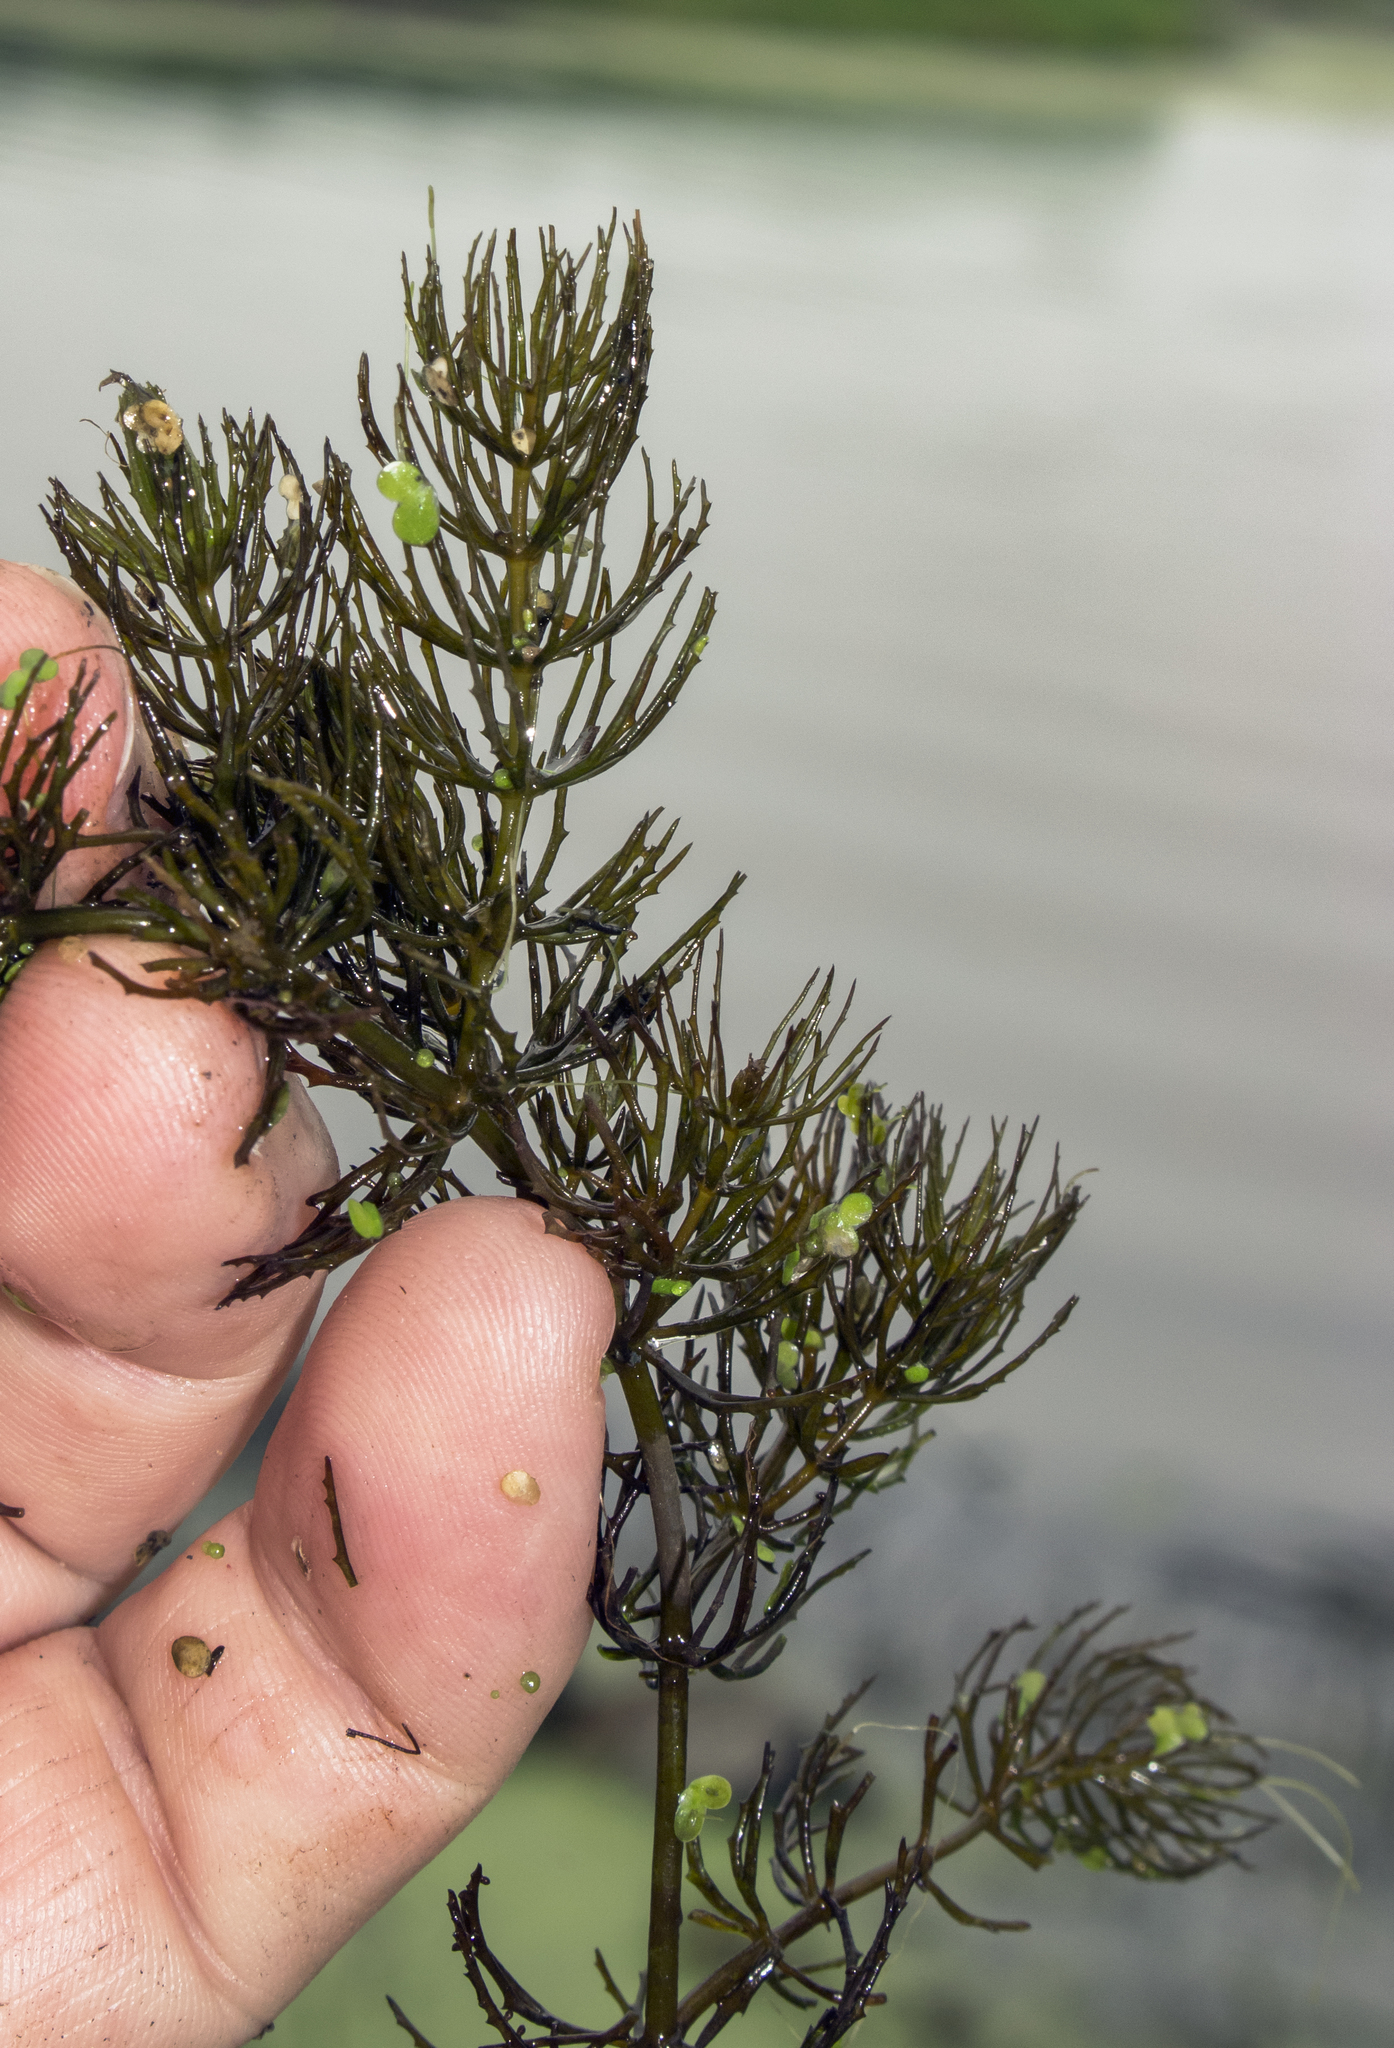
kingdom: Plantae
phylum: Tracheophyta
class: Magnoliopsida
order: Ceratophyllales
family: Ceratophyllaceae
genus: Ceratophyllum
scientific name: Ceratophyllum demersum
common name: Rigid hornwort
